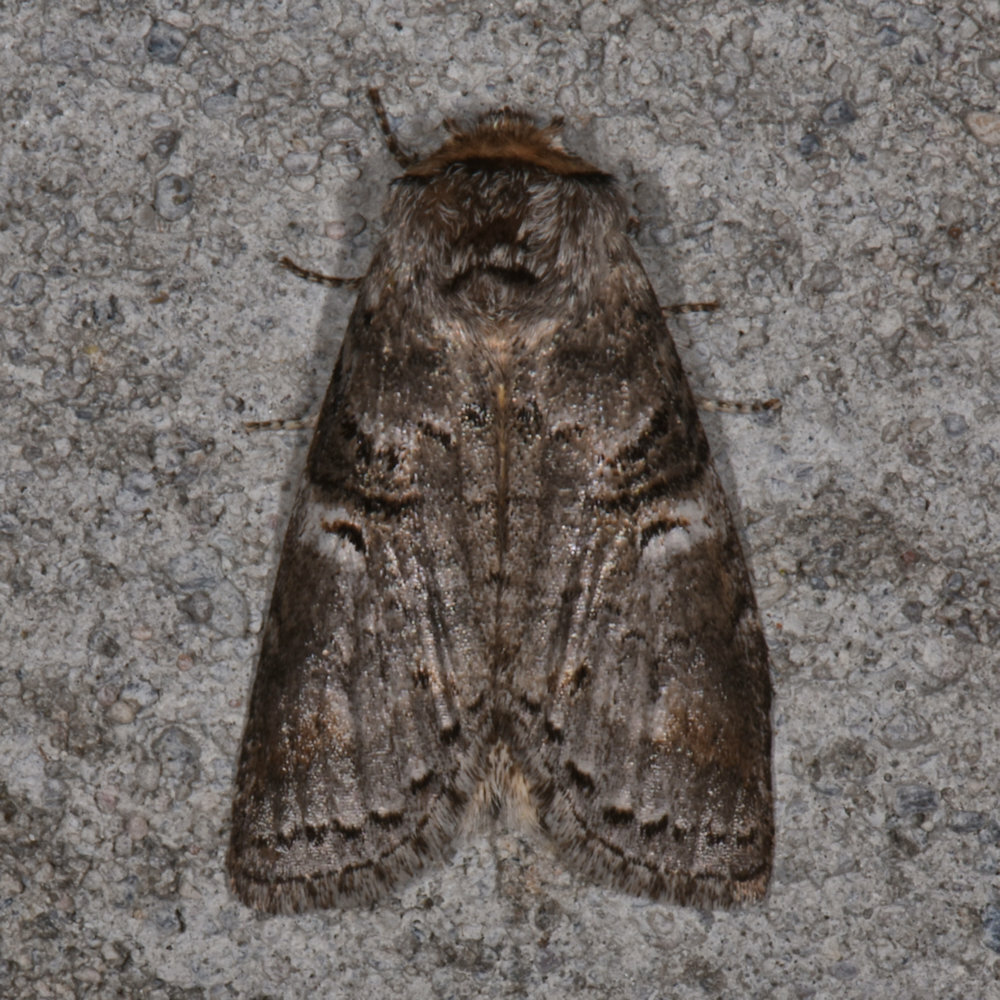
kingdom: Animalia
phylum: Arthropoda
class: Insecta
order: Lepidoptera
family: Notodontidae
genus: Ellida
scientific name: Ellida caniplaga
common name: Linden prominent
